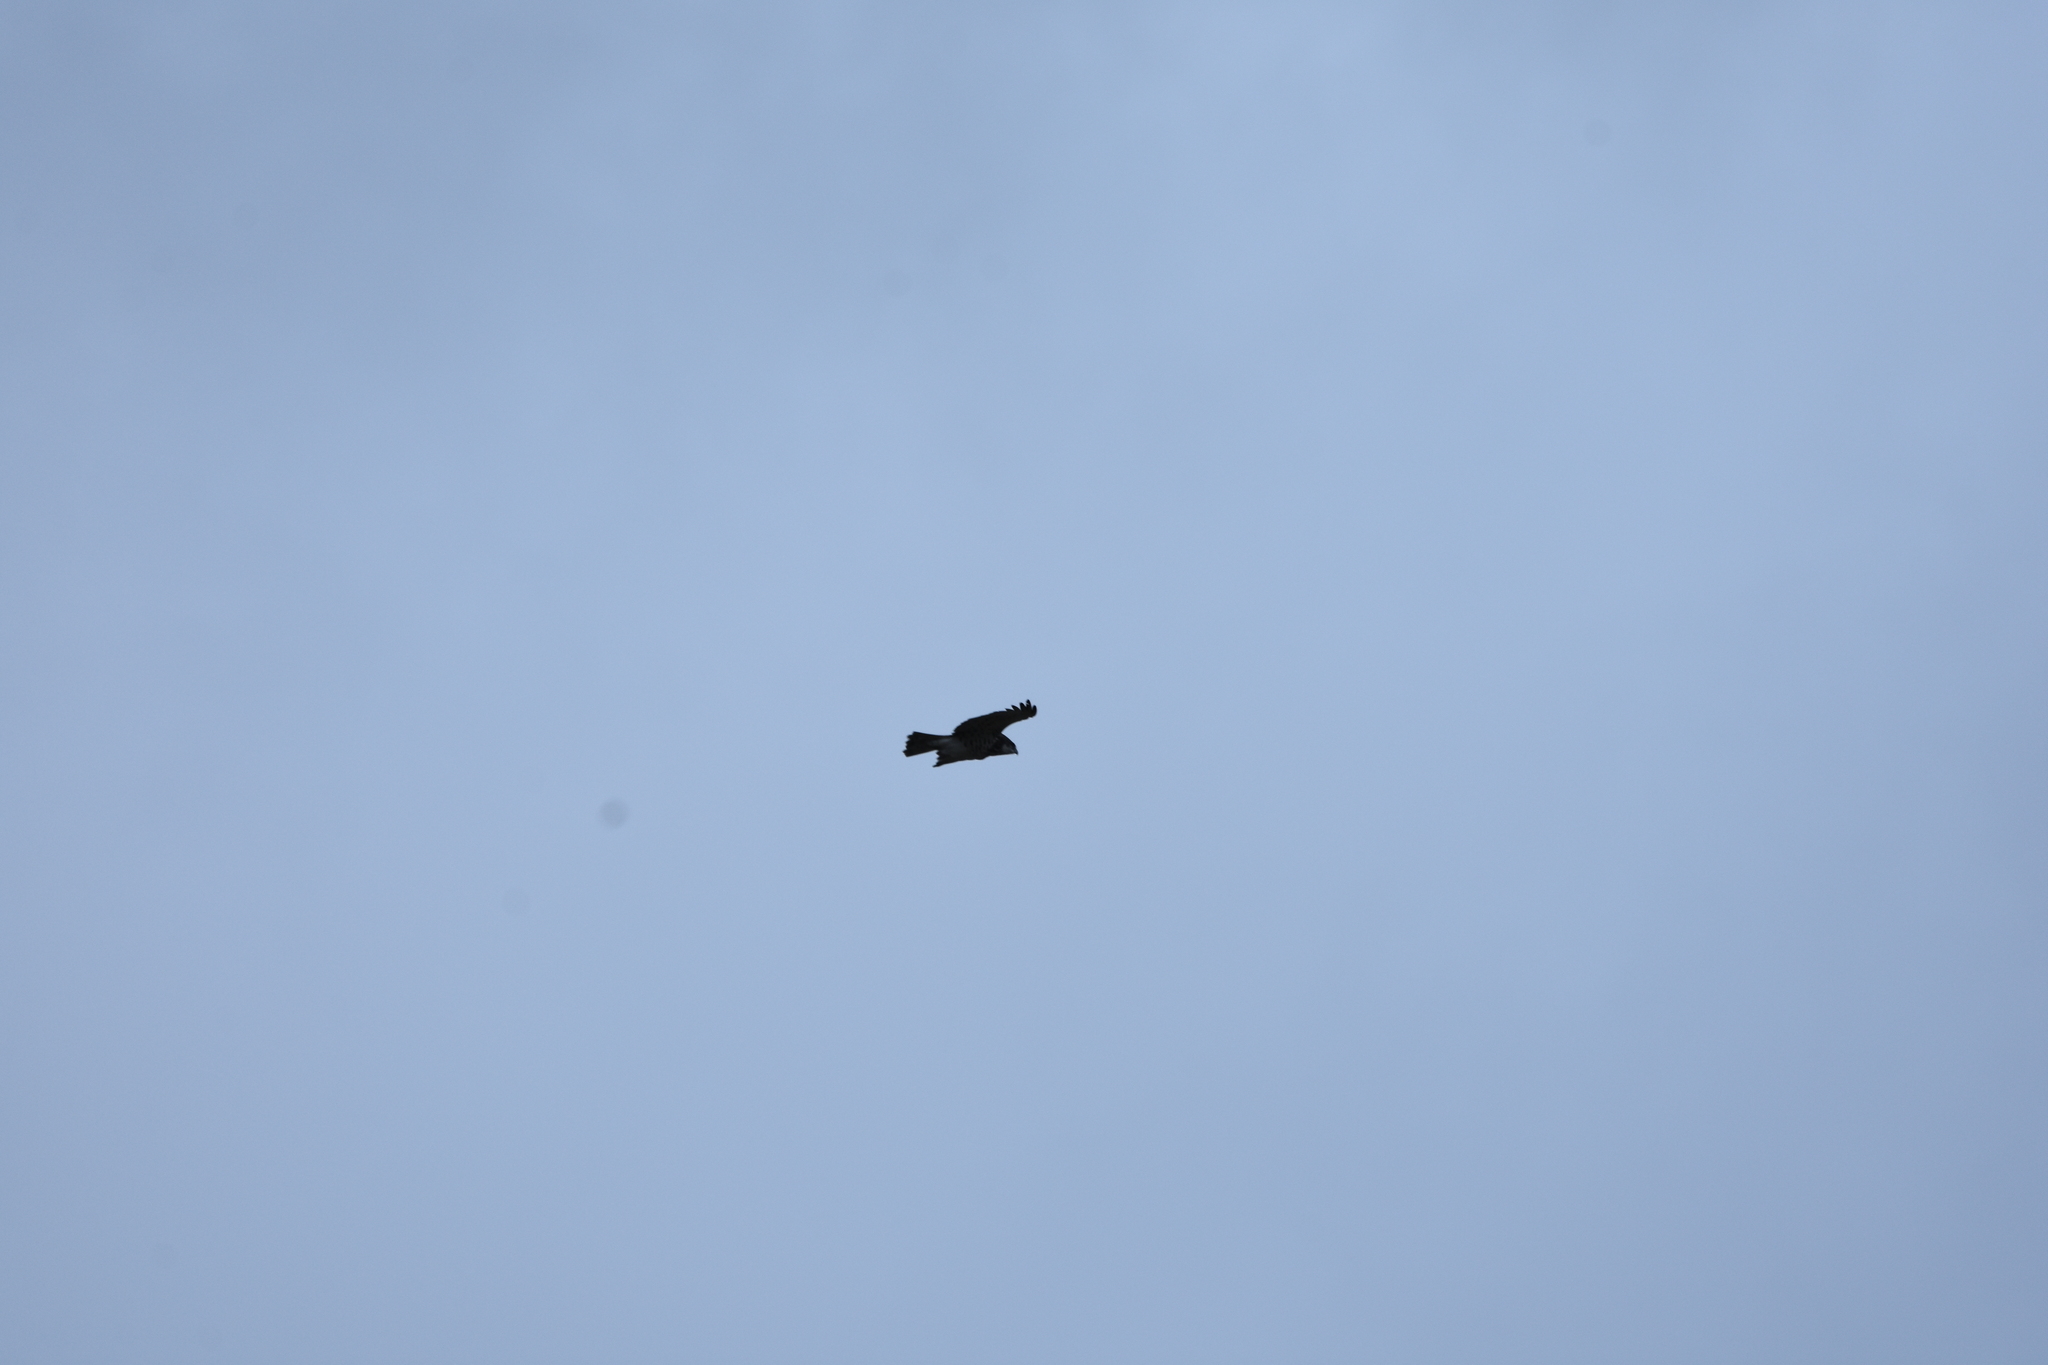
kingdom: Animalia
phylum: Chordata
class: Aves
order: Accipitriformes
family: Accipitridae
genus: Circaetus
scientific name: Circaetus gallicus
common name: Short-toed snake eagle
